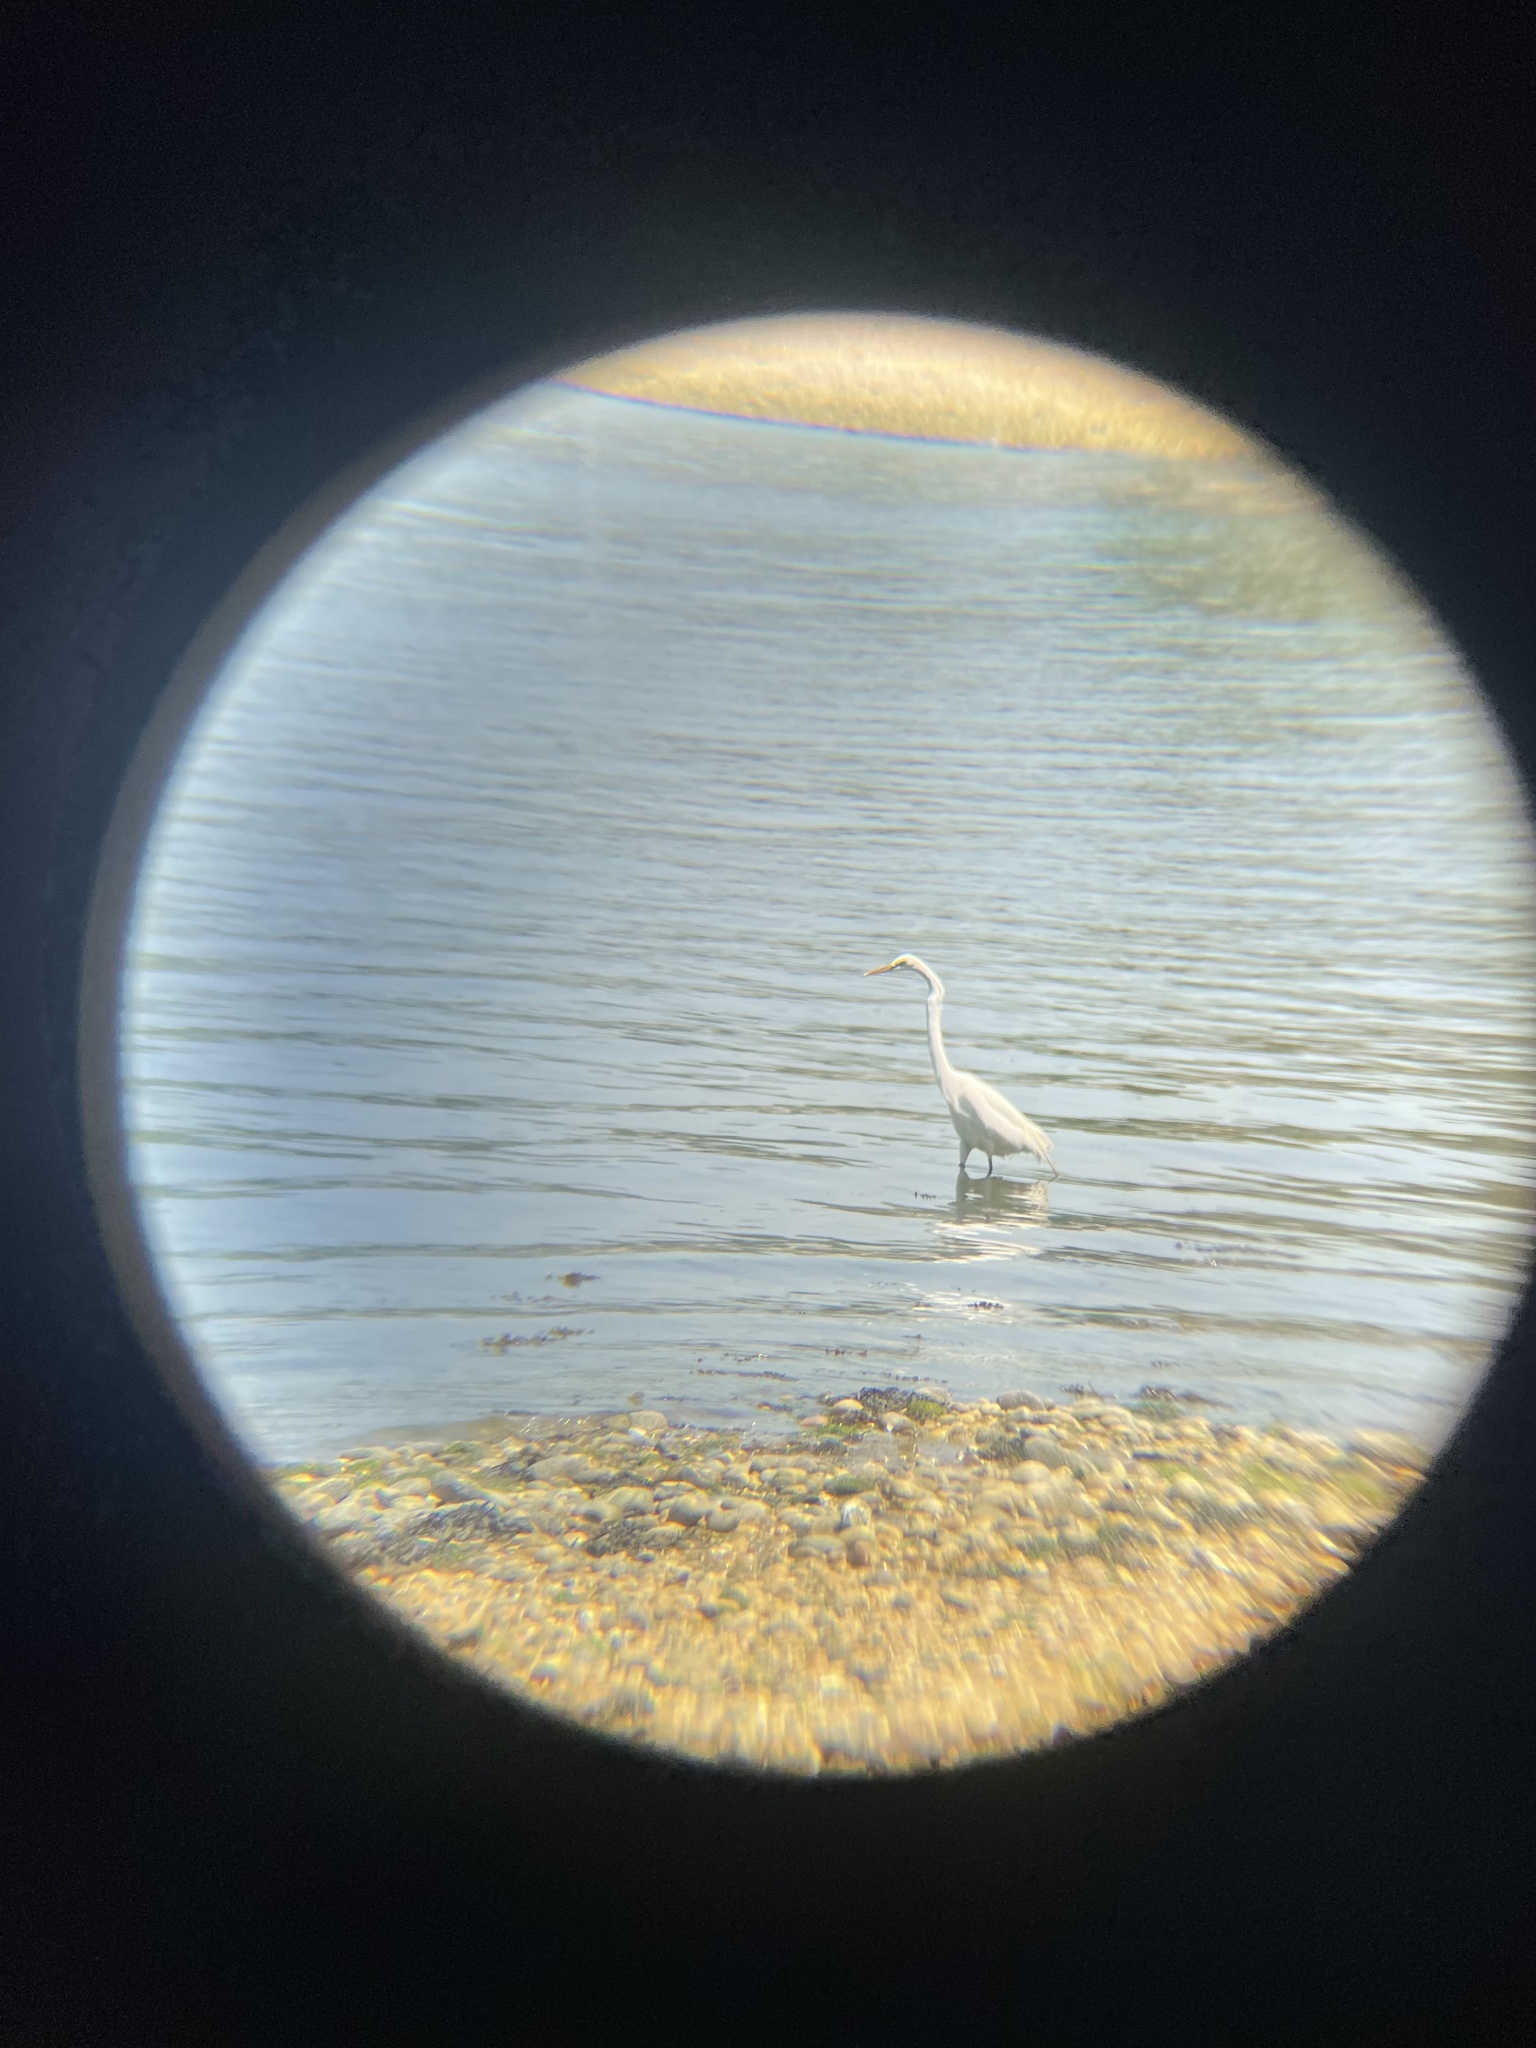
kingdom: Animalia
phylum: Chordata
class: Aves
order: Pelecaniformes
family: Ardeidae
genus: Ardea
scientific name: Ardea alba
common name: Great egret
